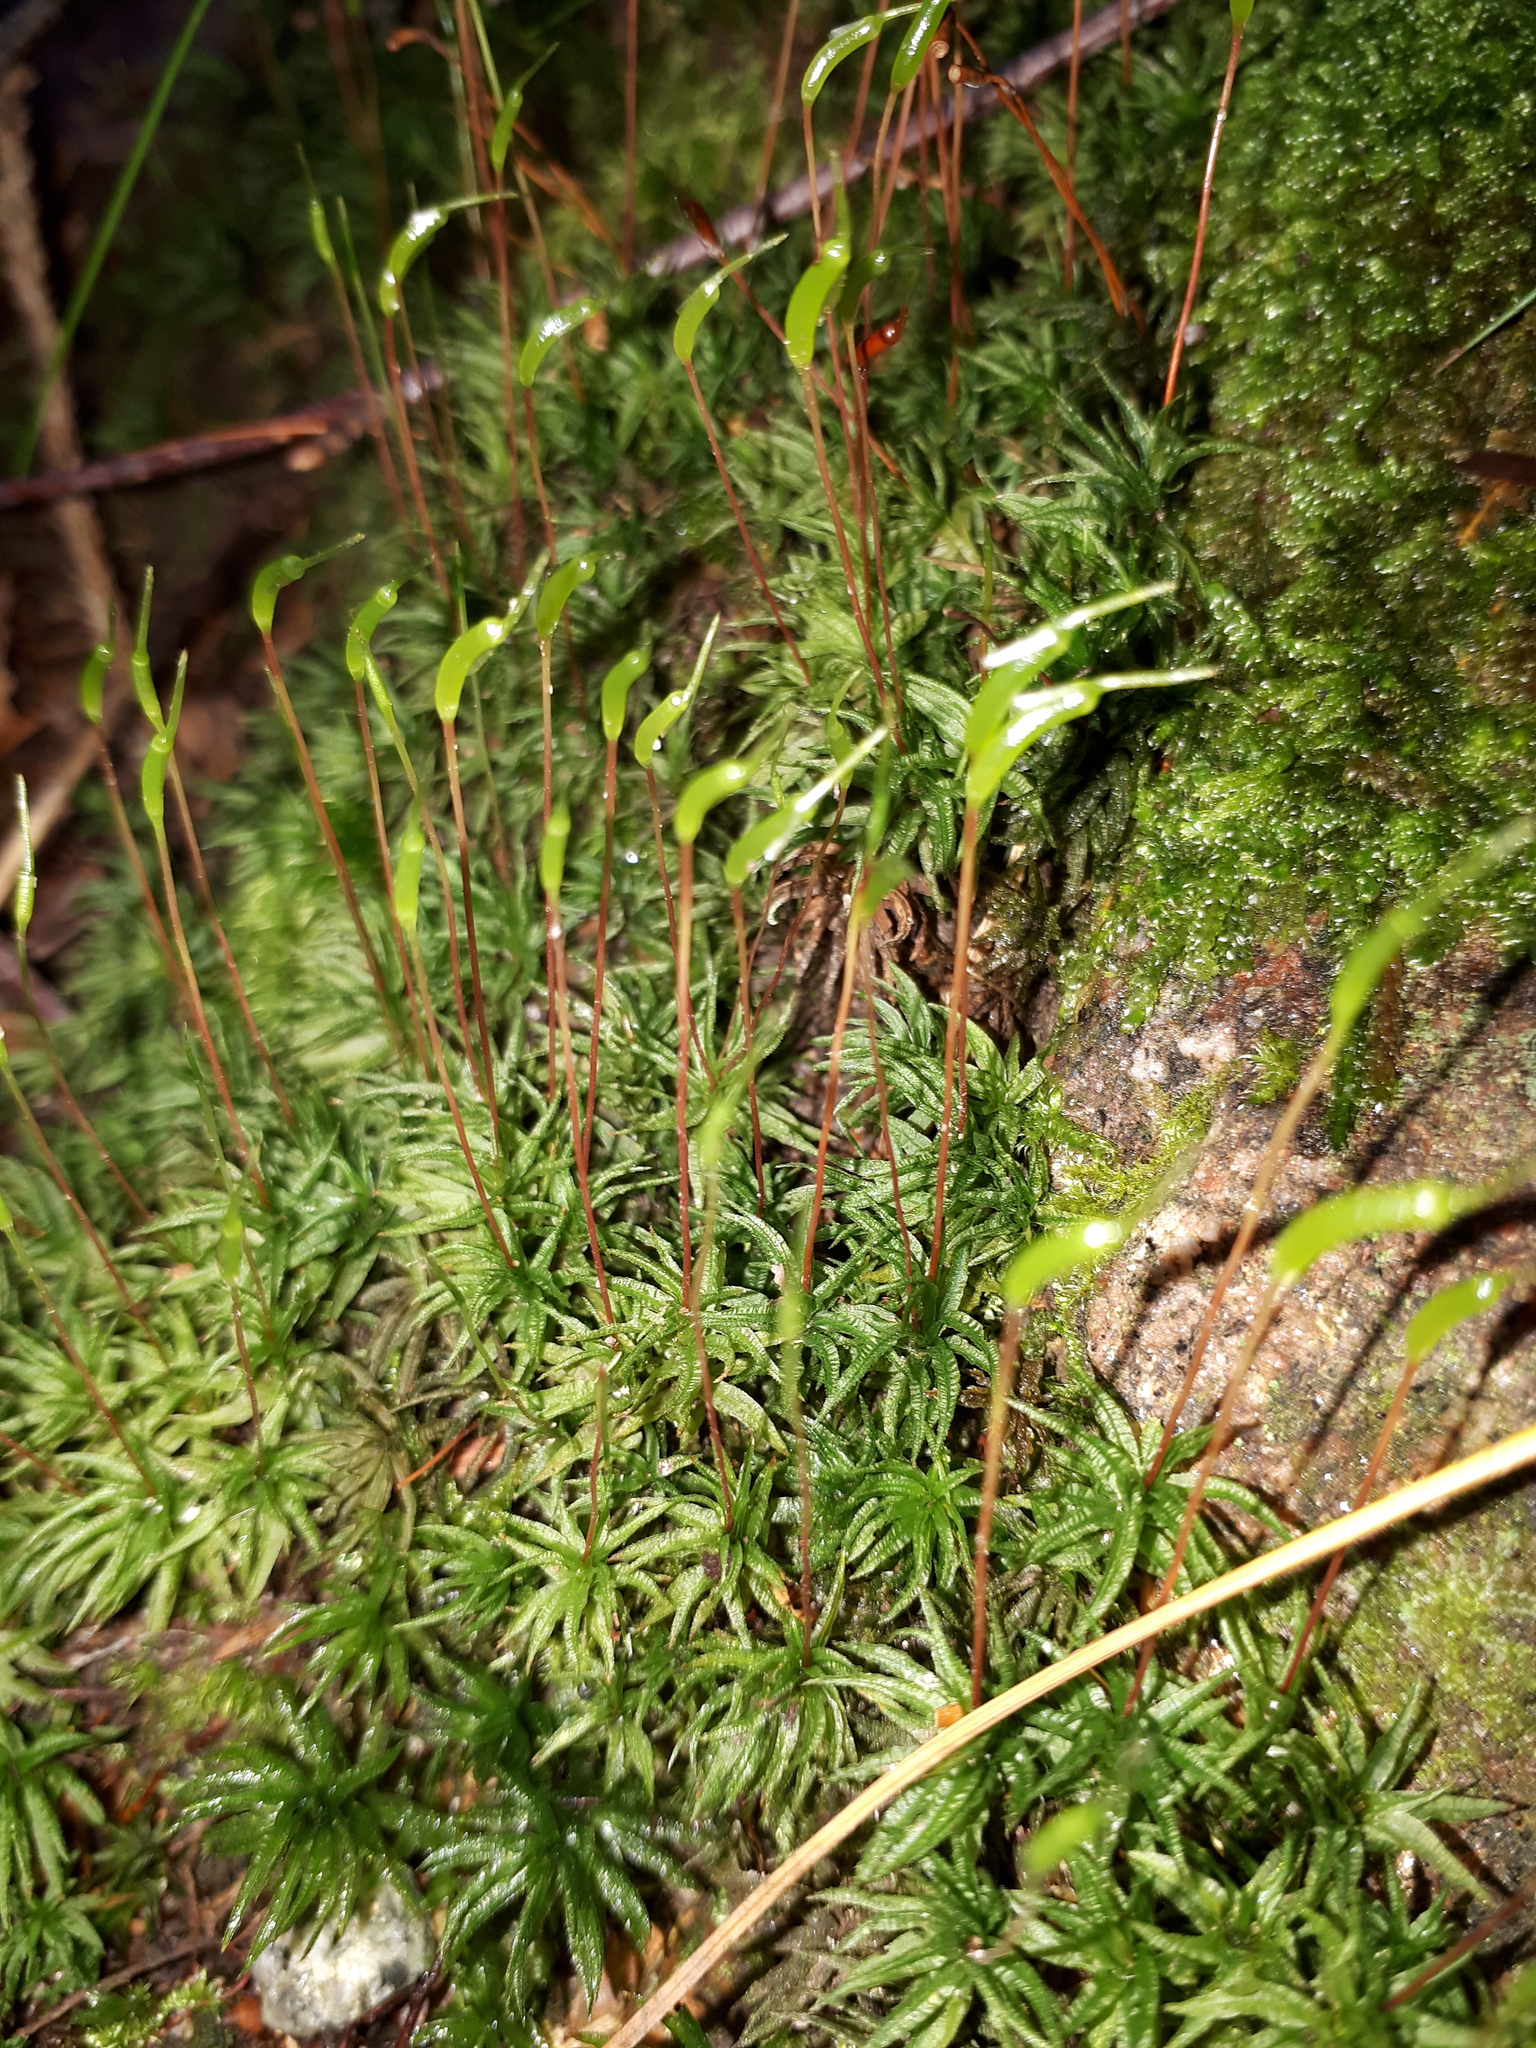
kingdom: Plantae
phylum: Bryophyta
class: Polytrichopsida
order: Polytrichales
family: Polytrichaceae
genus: Atrichum
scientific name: Atrichum undulatum
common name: Common smoothcap
